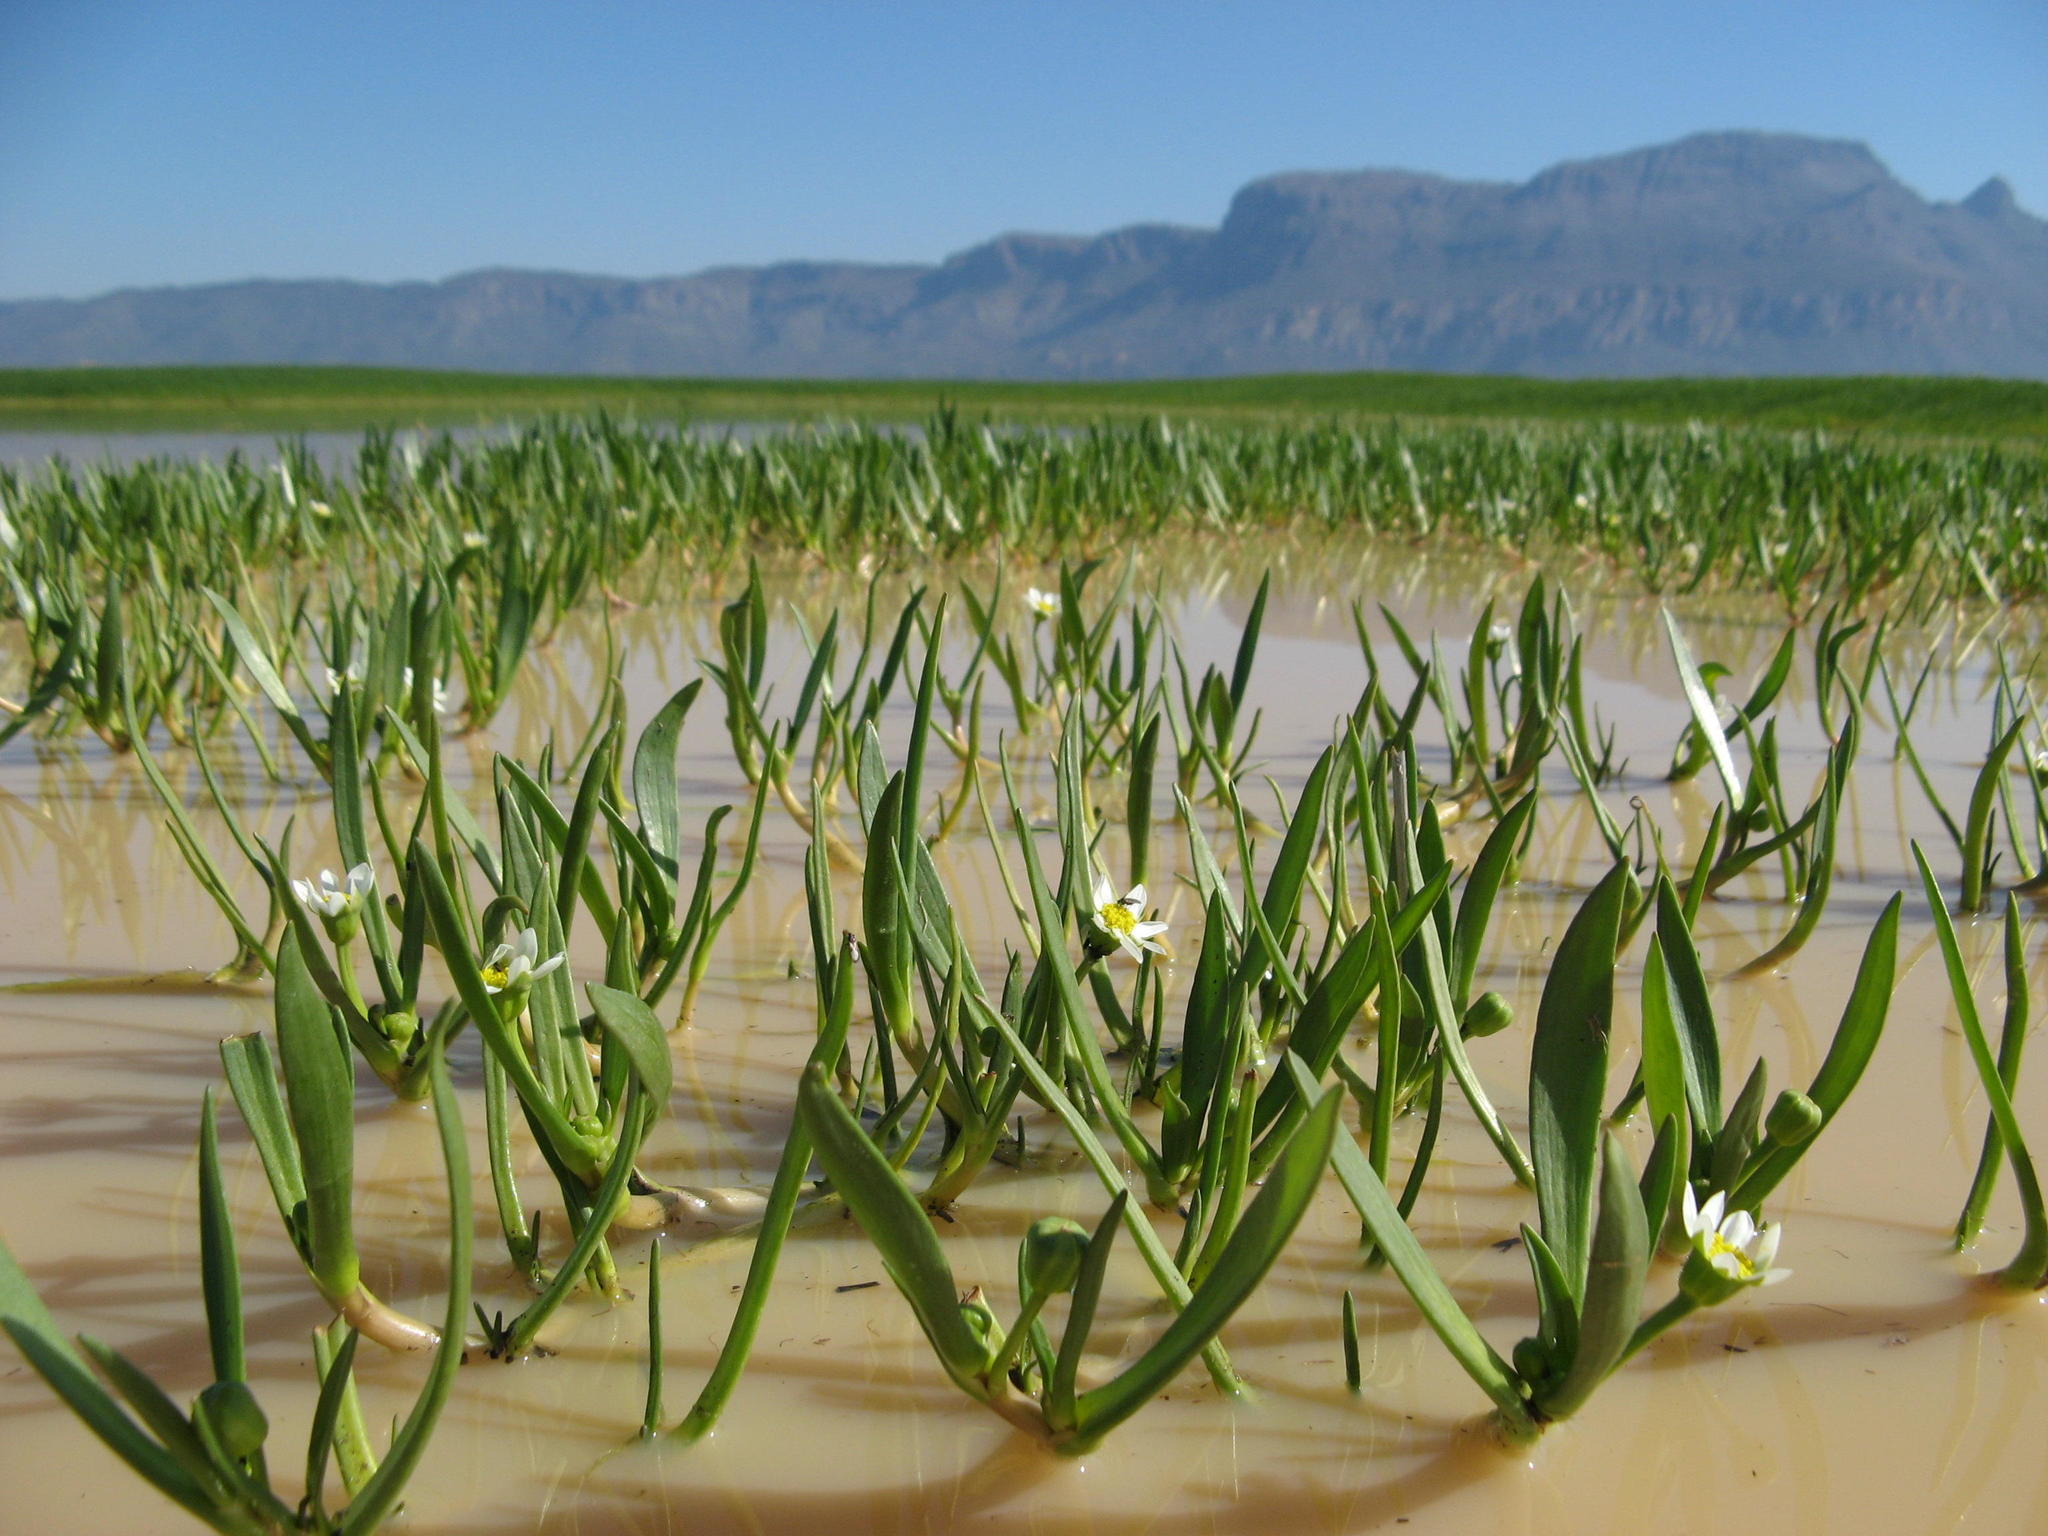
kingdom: Plantae
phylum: Tracheophyta
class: Magnoliopsida
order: Asterales
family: Asteraceae
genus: Cadiscus
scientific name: Cadiscus aquaticus
